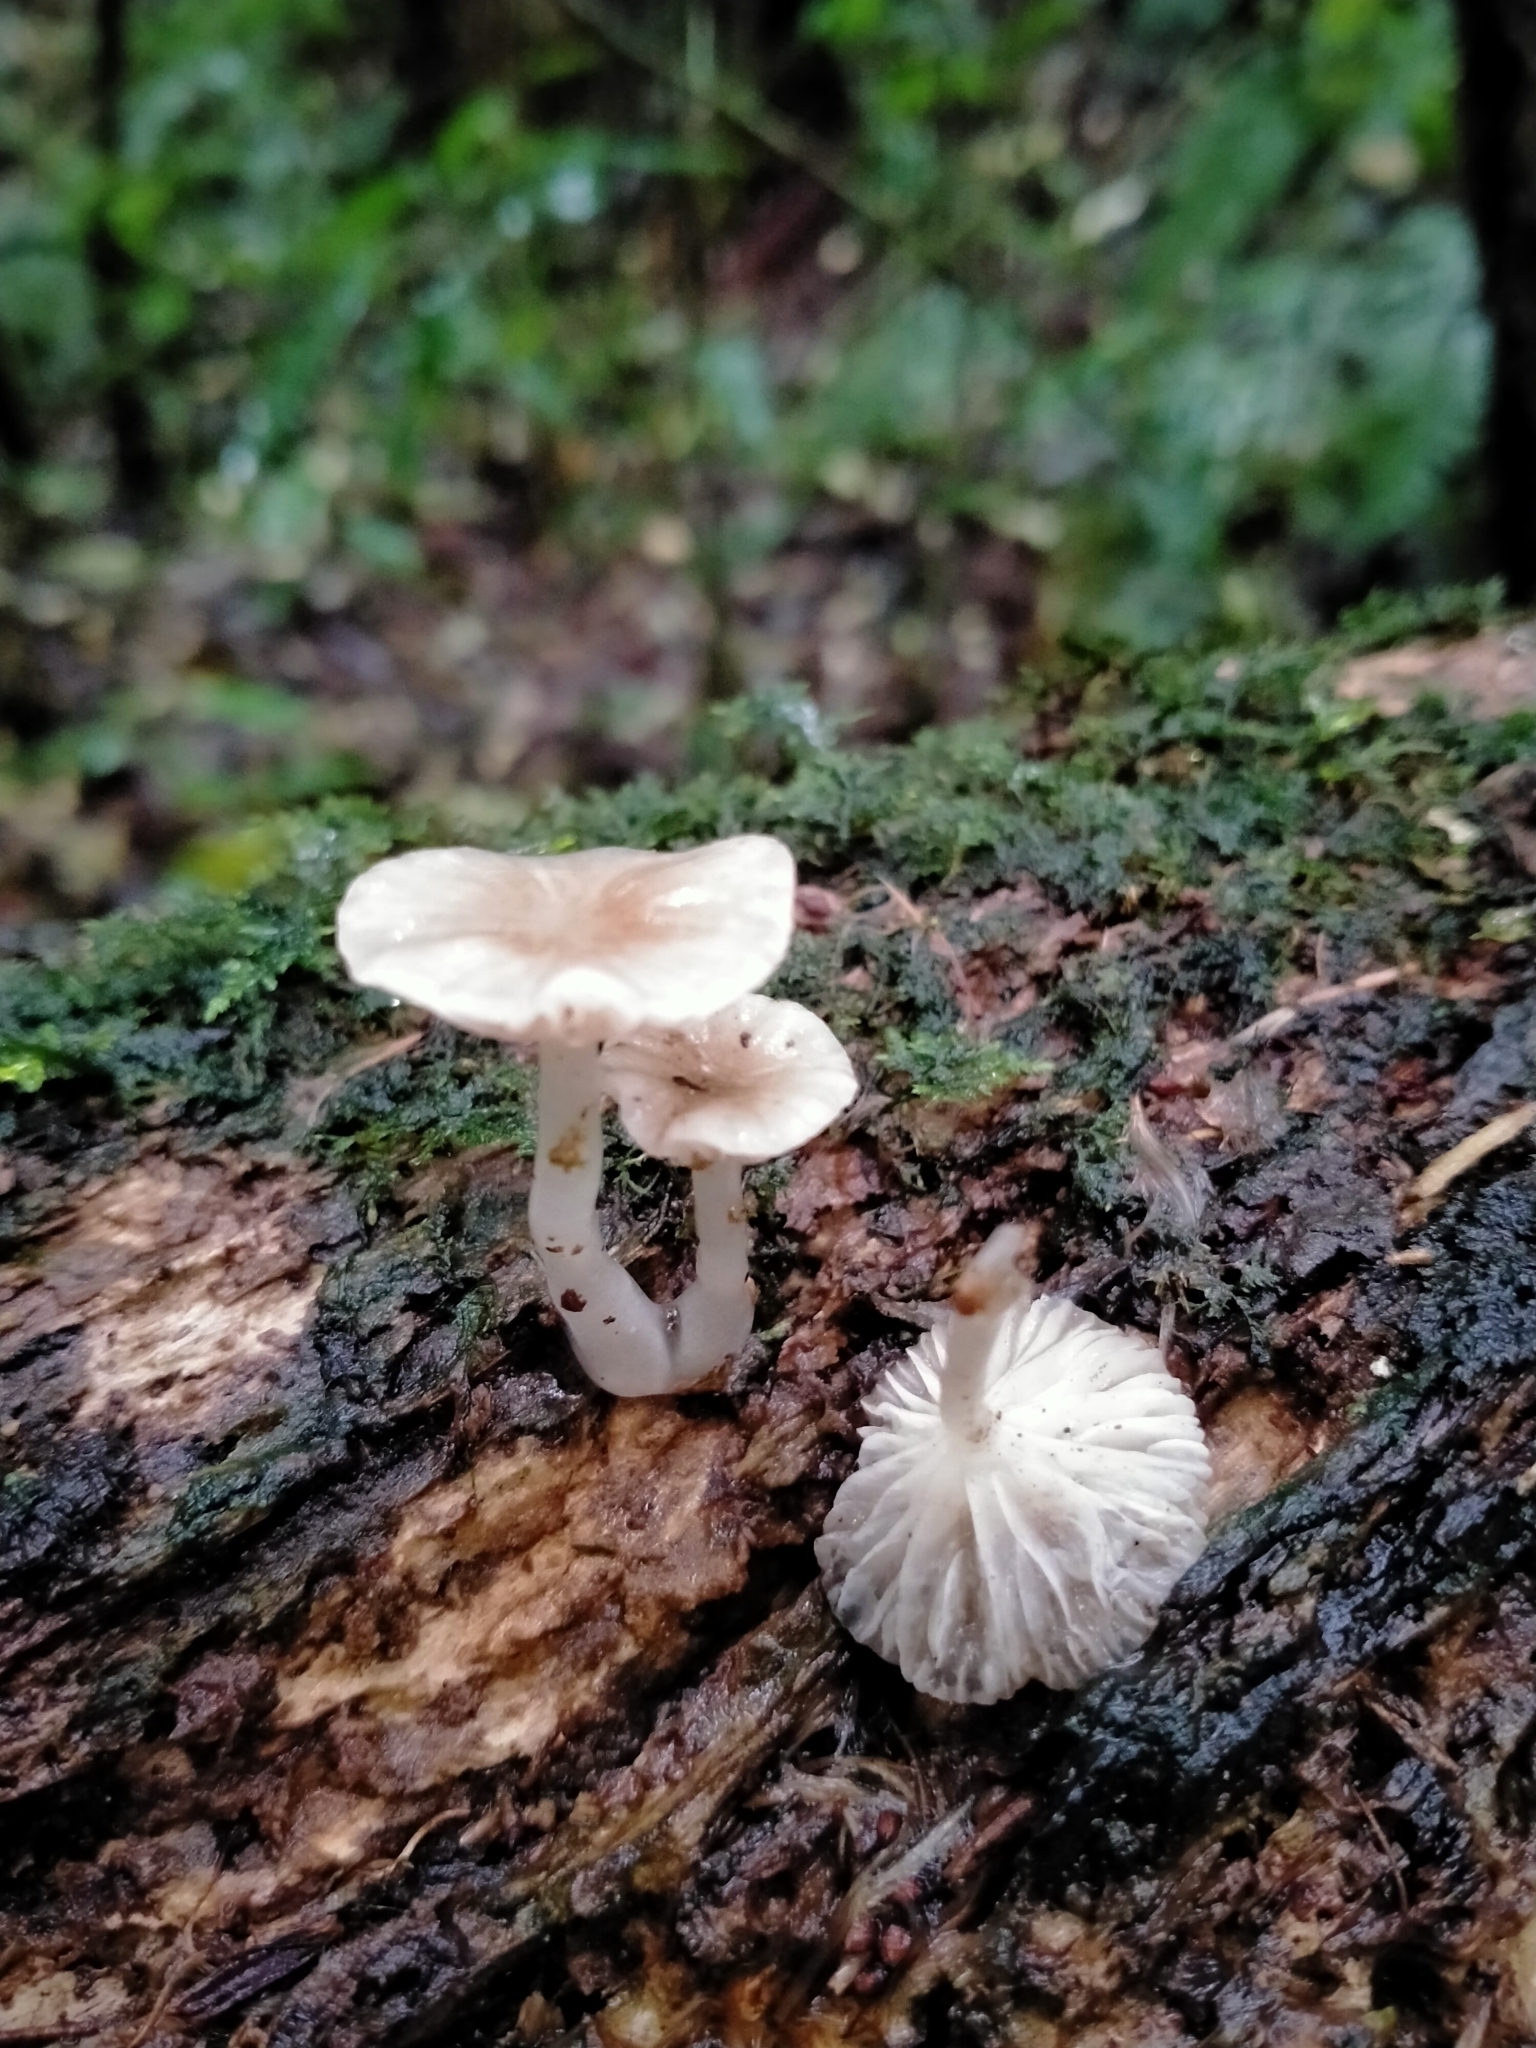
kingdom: Fungi
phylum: Basidiomycota
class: Agaricomycetes
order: Agaricales
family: Mycenaceae
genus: Roridomyces
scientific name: Roridomyces austrororidus
